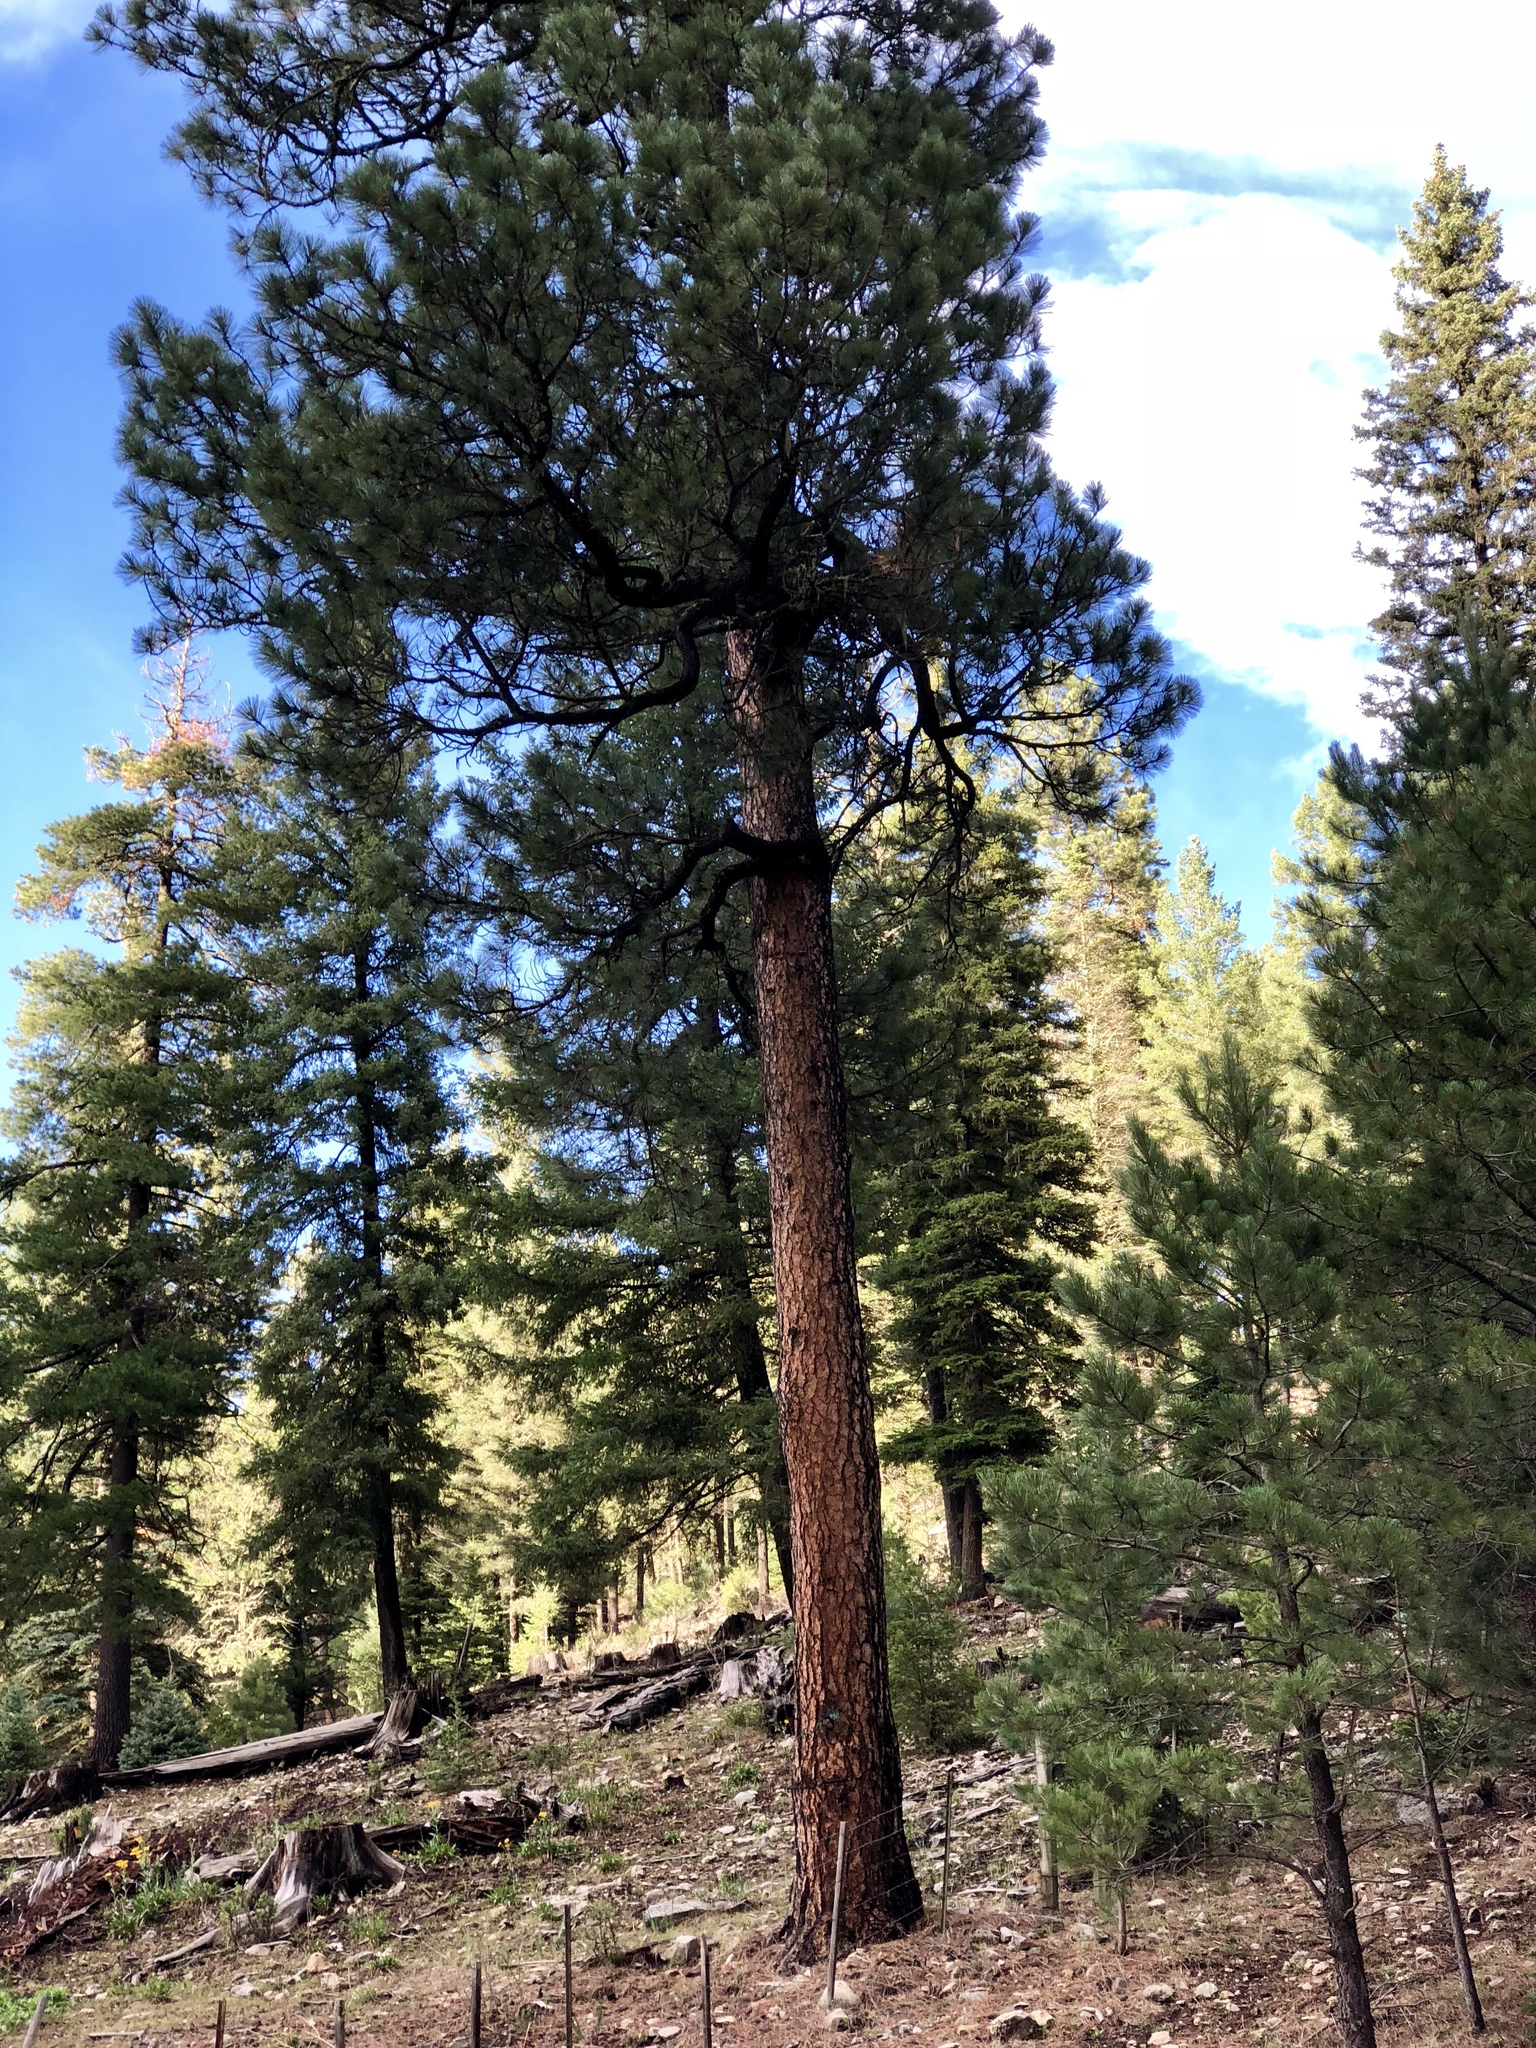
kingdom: Plantae
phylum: Tracheophyta
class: Pinopsida
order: Pinales
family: Pinaceae
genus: Pinus
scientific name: Pinus ponderosa
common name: Western yellow-pine
